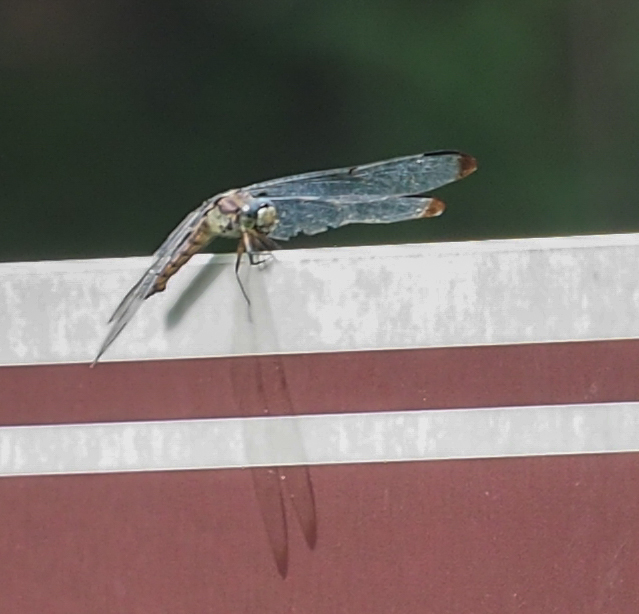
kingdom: Animalia
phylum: Arthropoda
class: Insecta
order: Odonata
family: Libellulidae
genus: Libellula
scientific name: Libellula vibrans
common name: Great blue skimmer
